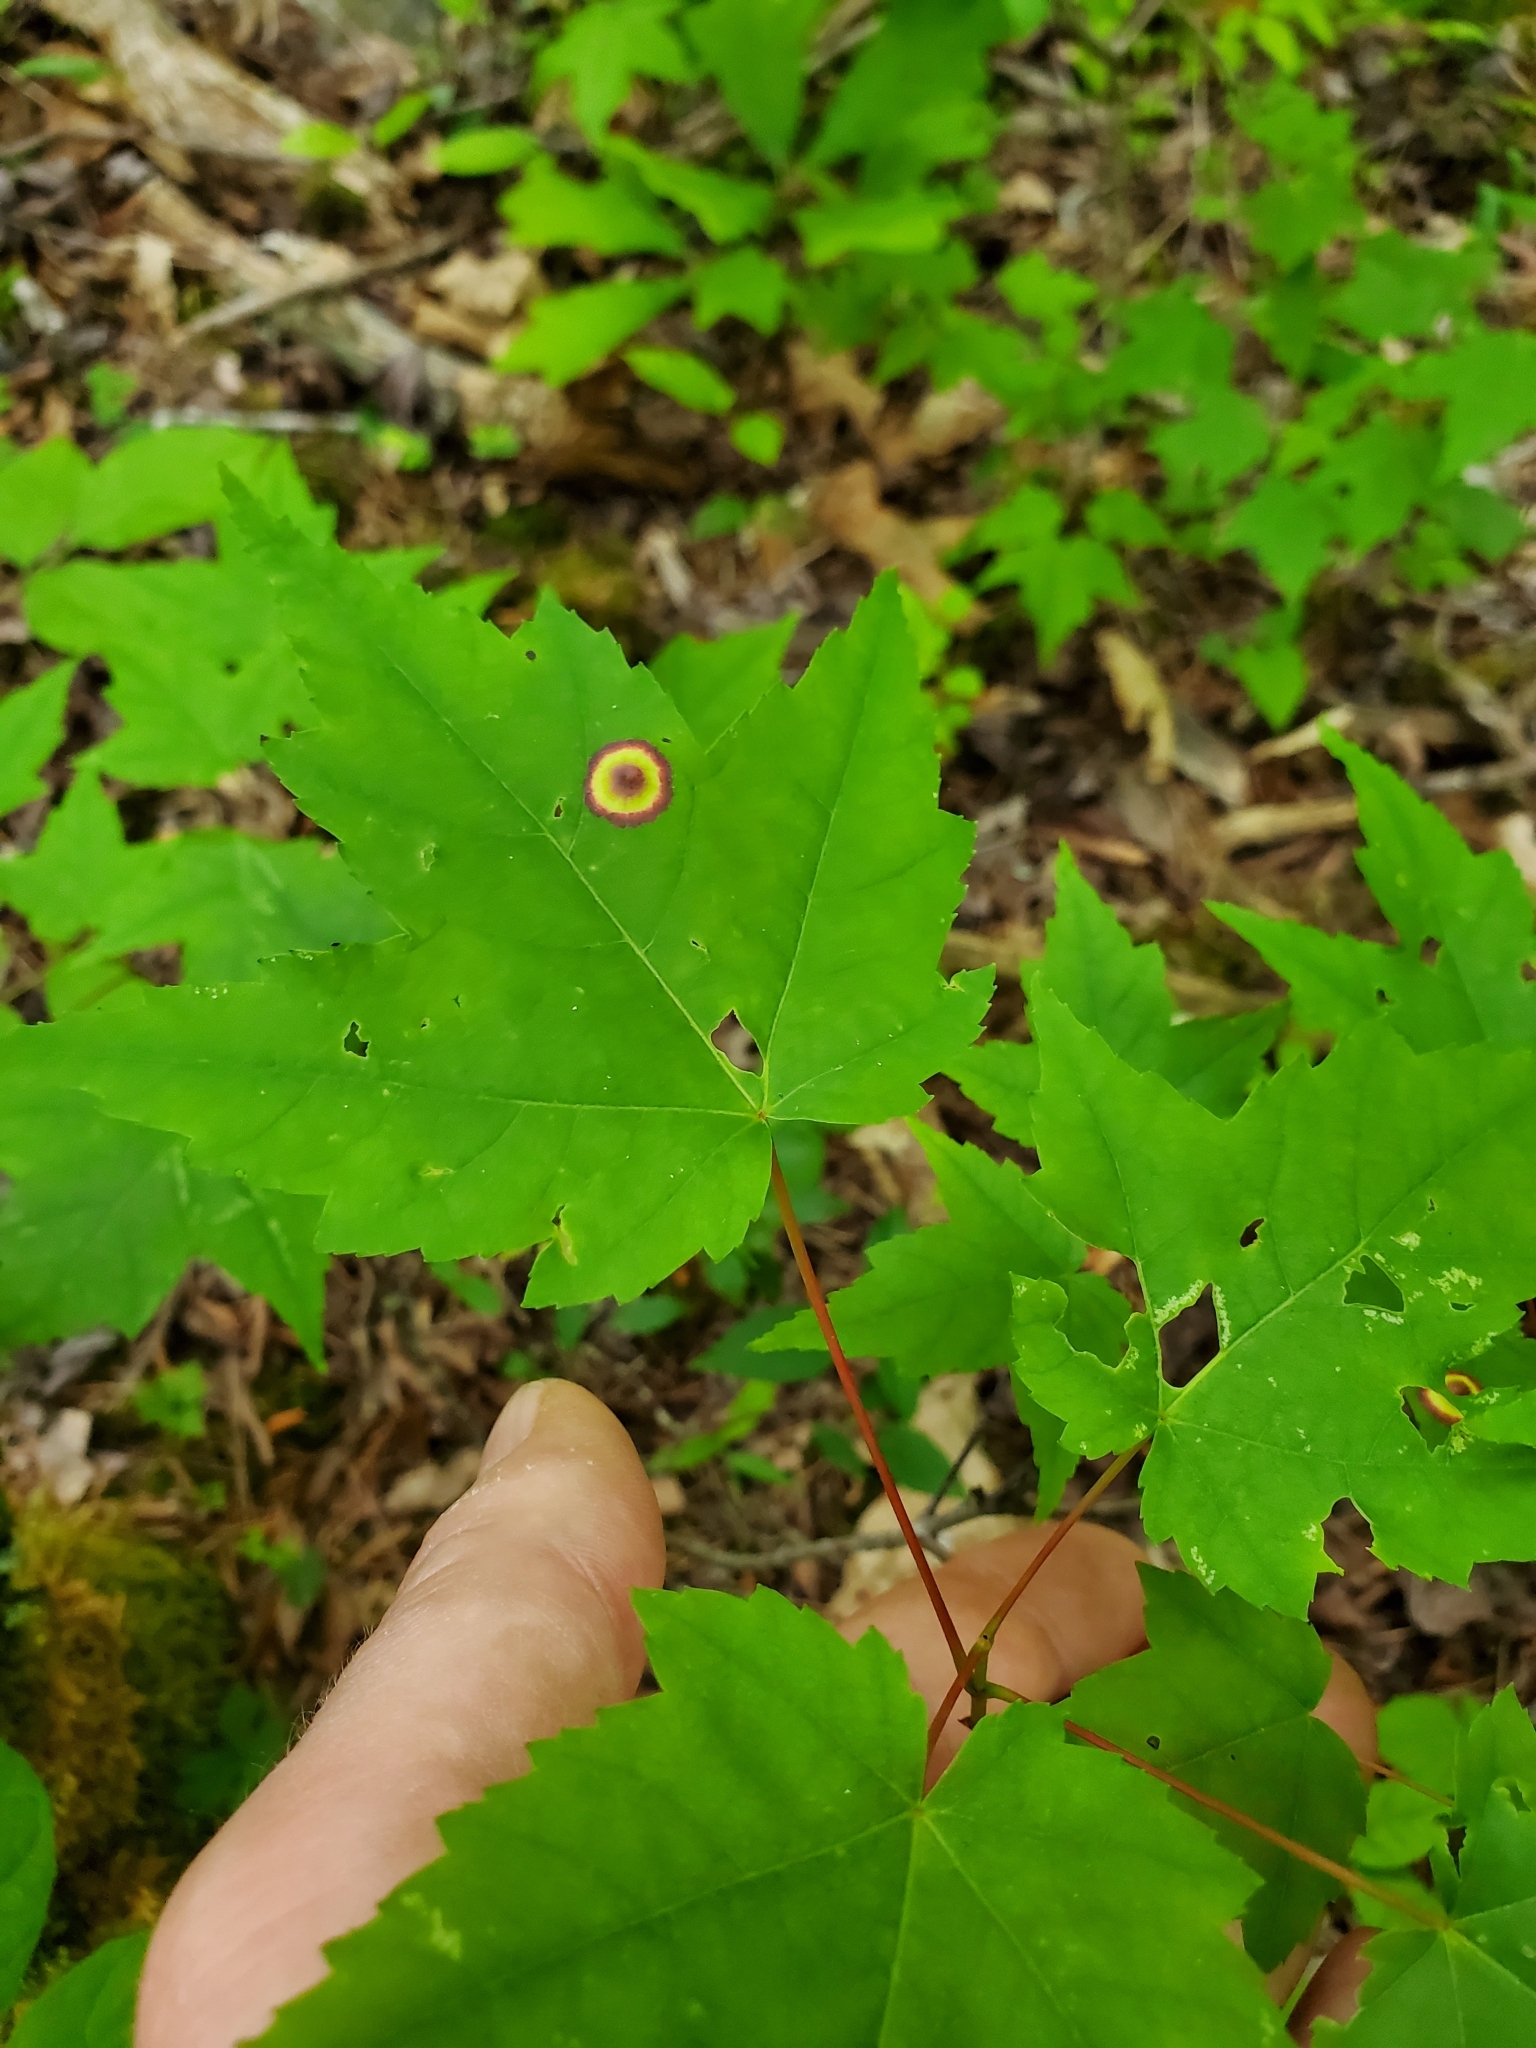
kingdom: Animalia
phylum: Arthropoda
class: Insecta
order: Diptera
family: Cecidomyiidae
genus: Acericecis
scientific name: Acericecis ocellaris
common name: Ocellate gall midge
